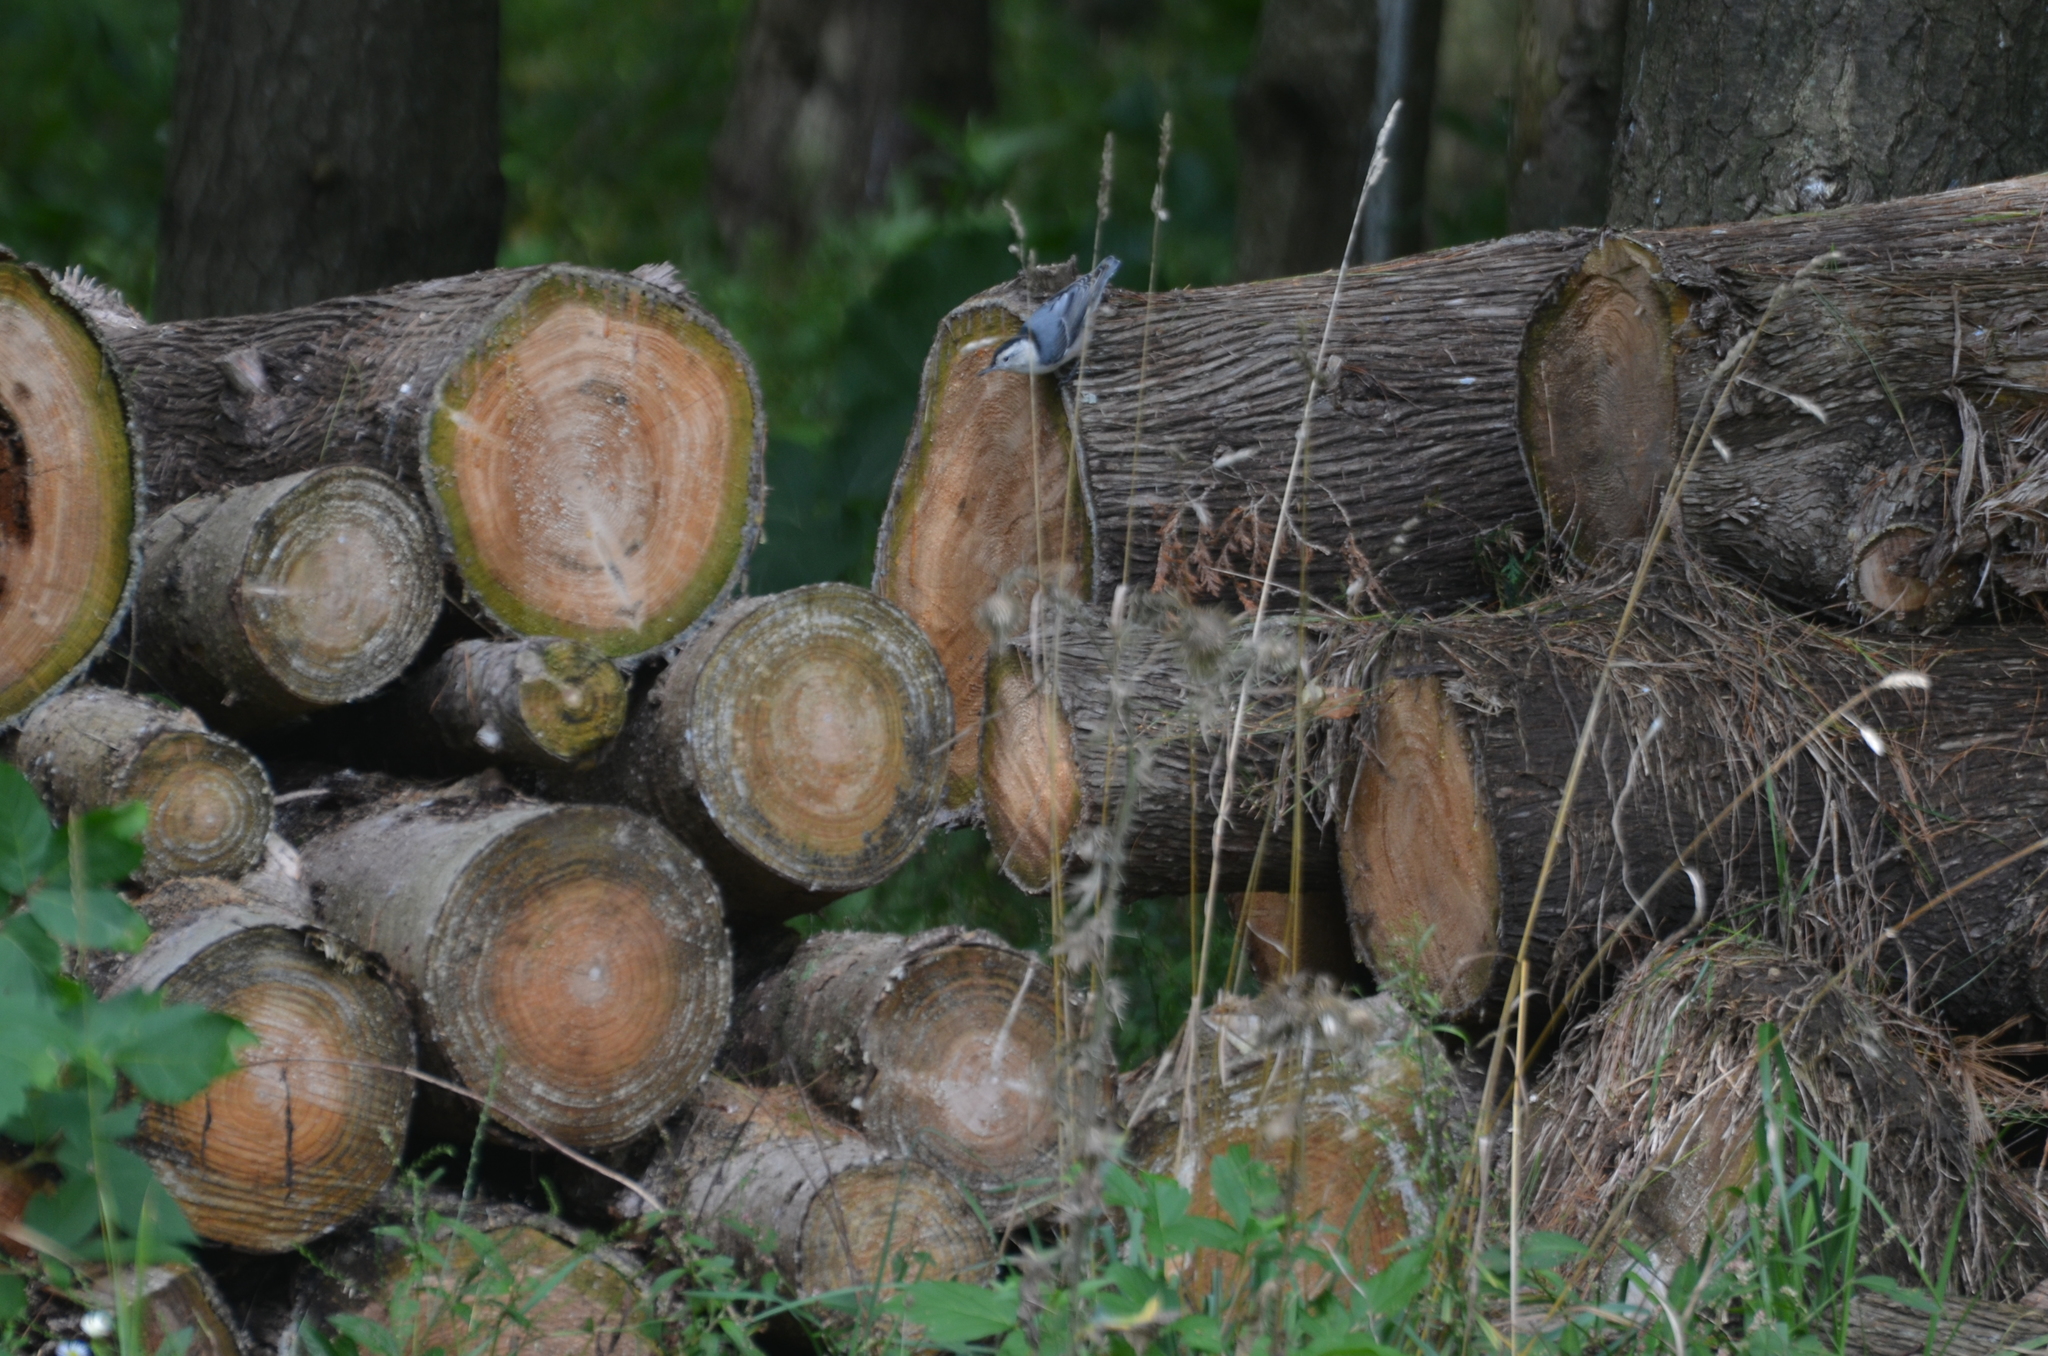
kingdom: Animalia
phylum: Chordata
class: Aves
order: Passeriformes
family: Sittidae
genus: Sitta
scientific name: Sitta carolinensis
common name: White-breasted nuthatch
